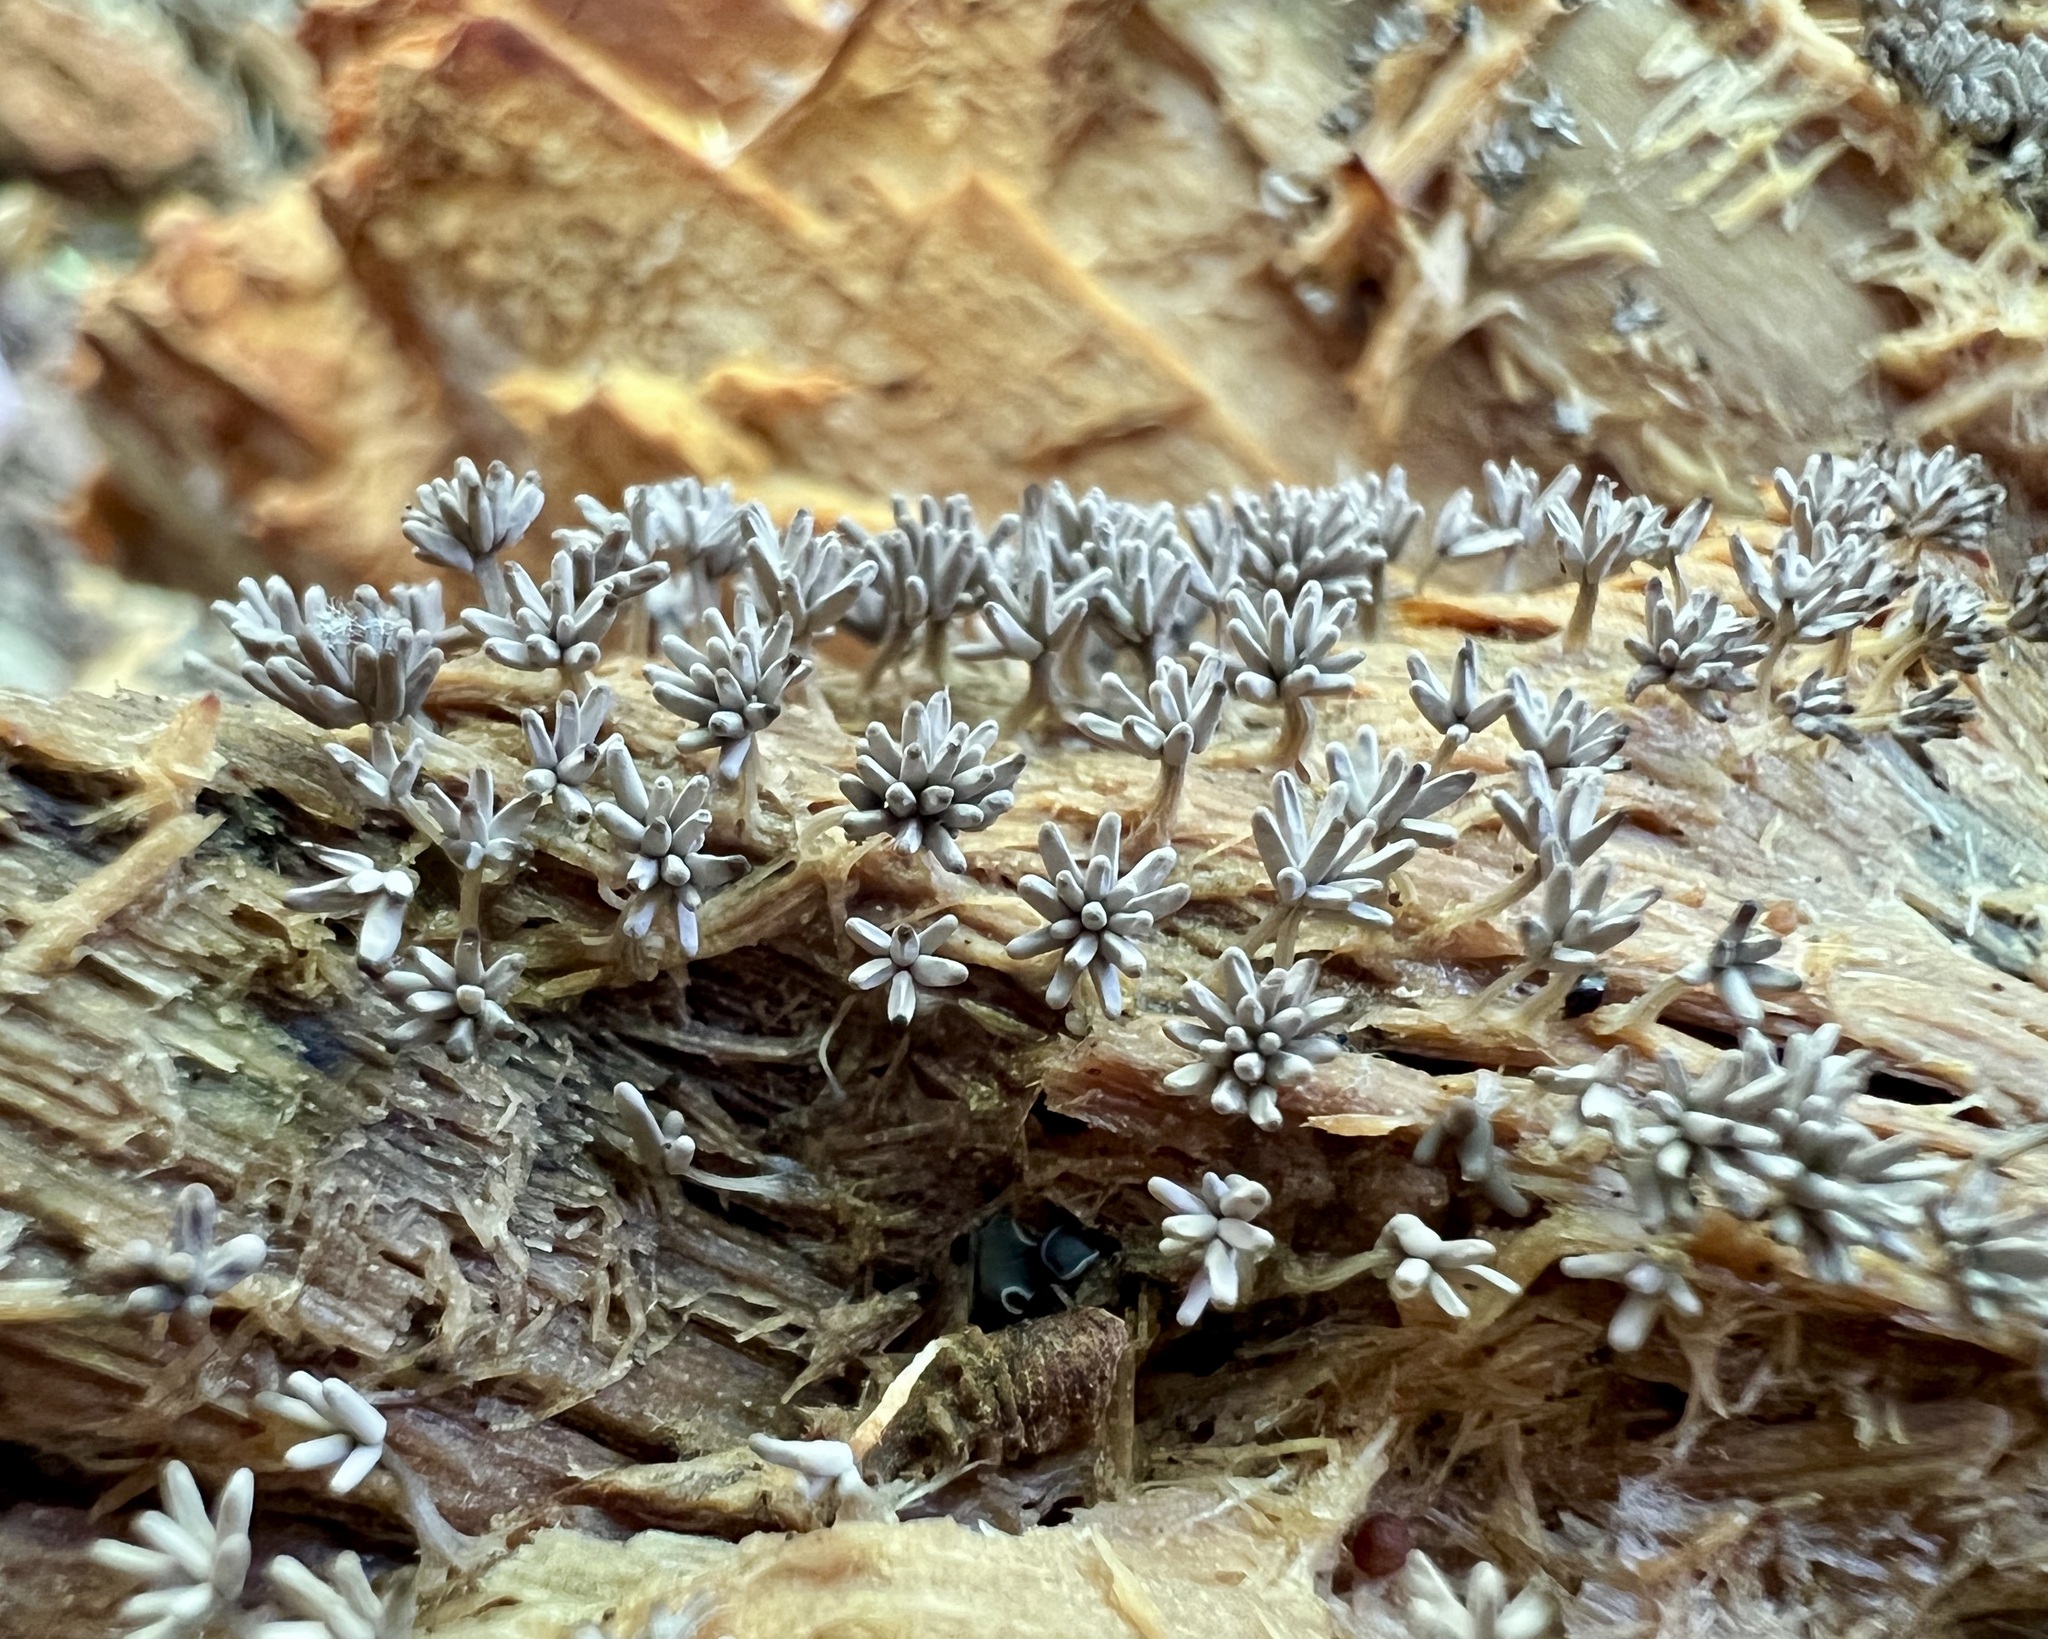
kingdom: Protozoa
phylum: Mycetozoa
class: Myxomycetes
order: Trichiales
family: Arcyriaceae
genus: Arcyria
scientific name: Arcyria cinerea
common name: White carnival candy slime mold
